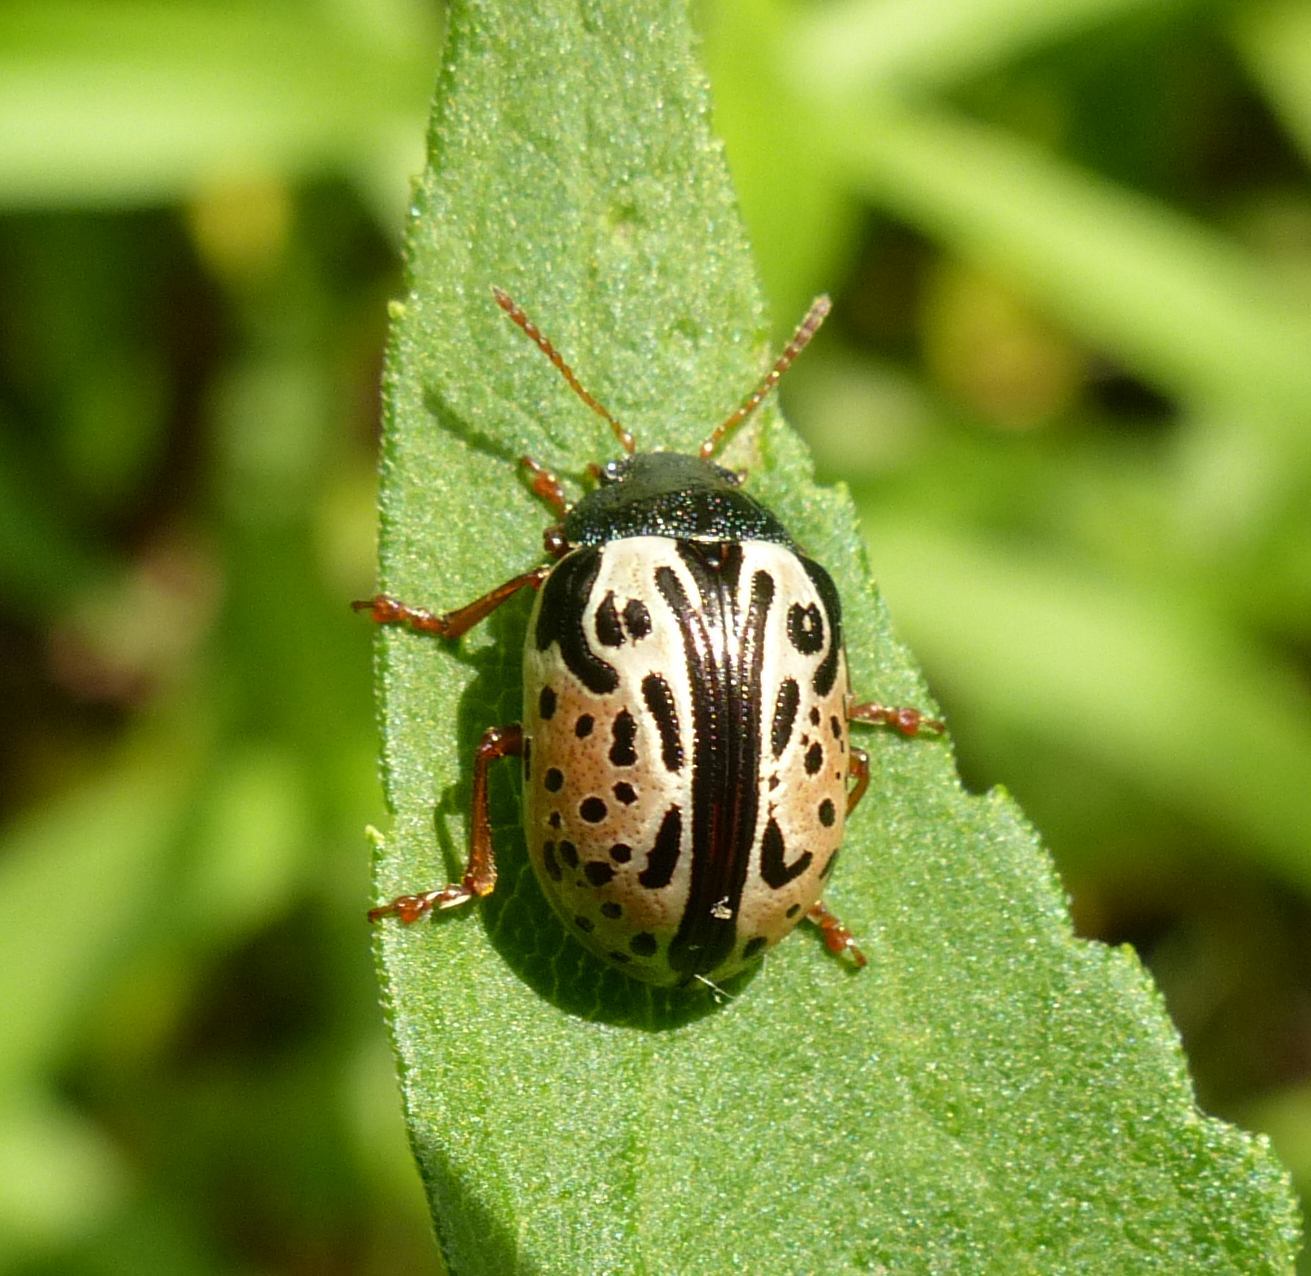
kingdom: Animalia
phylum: Arthropoda
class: Insecta
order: Coleoptera
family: Chrysomelidae
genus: Calligrapha
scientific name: Calligrapha vicina
